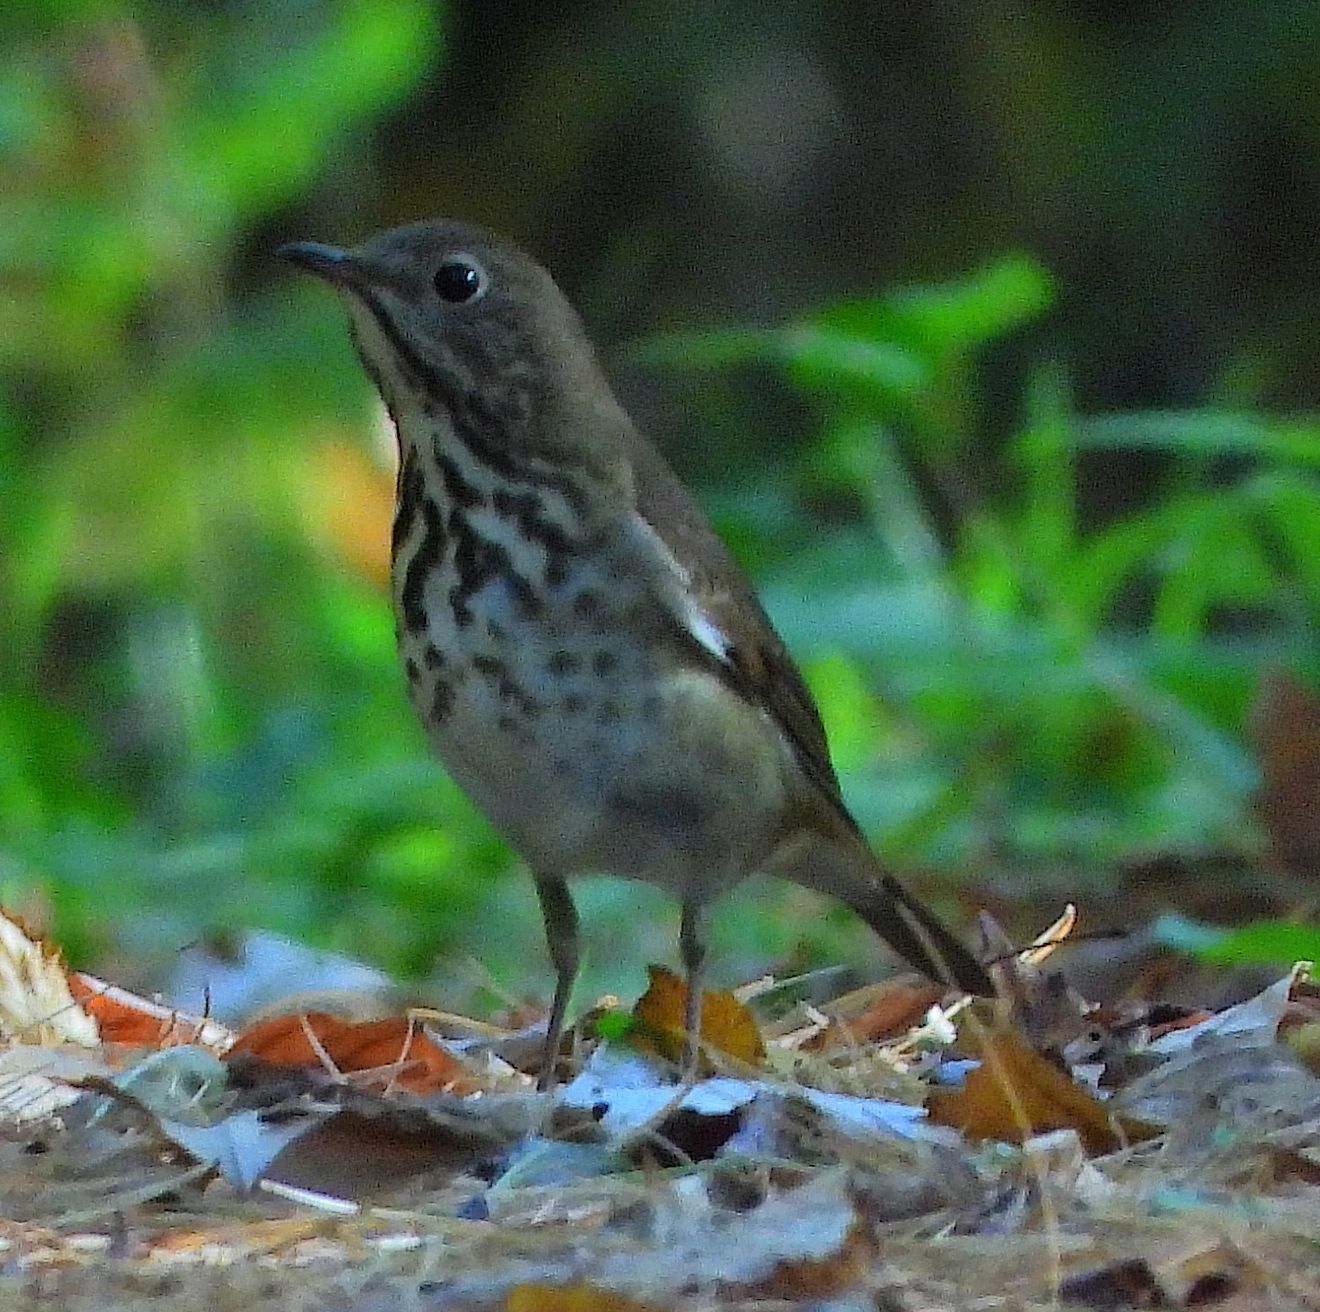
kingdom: Animalia
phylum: Chordata
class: Aves
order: Passeriformes
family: Turdidae
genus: Catharus
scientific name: Catharus guttatus
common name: Hermit thrush
